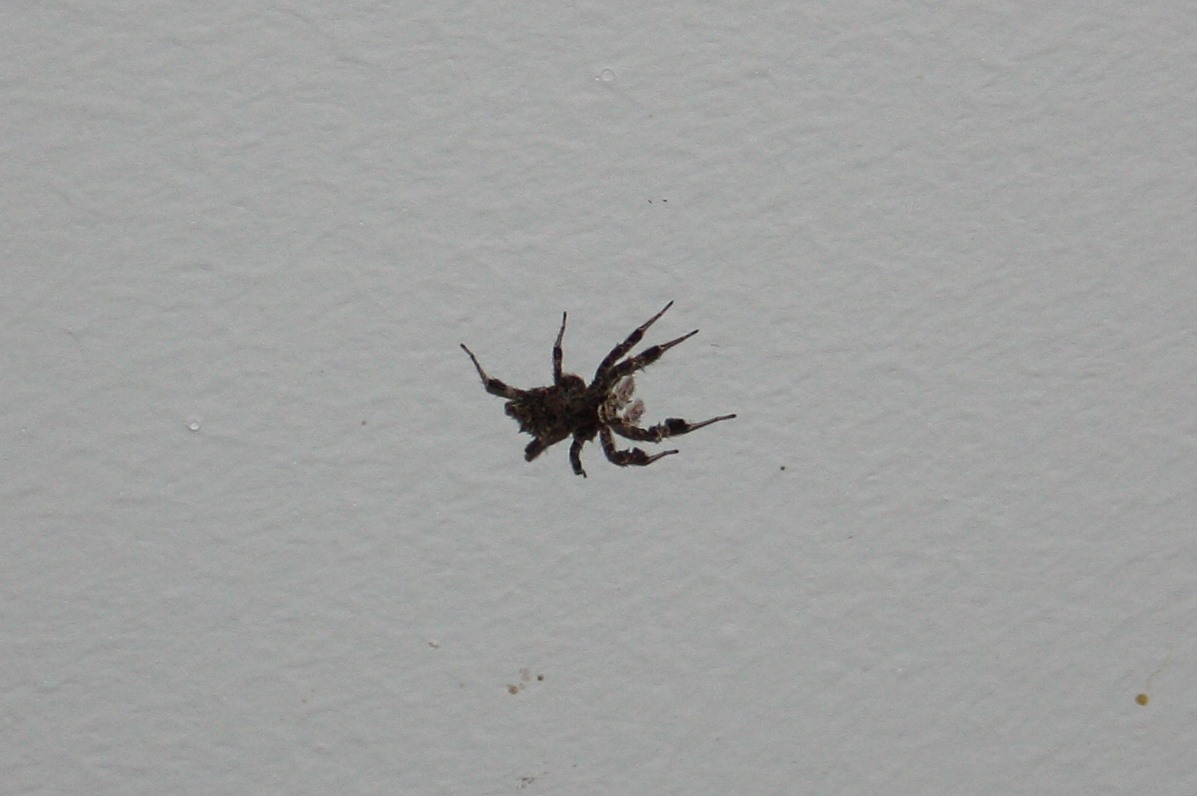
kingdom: Animalia
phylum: Arthropoda
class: Arachnida
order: Araneae
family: Salticidae
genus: Portia
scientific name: Portia schultzi
